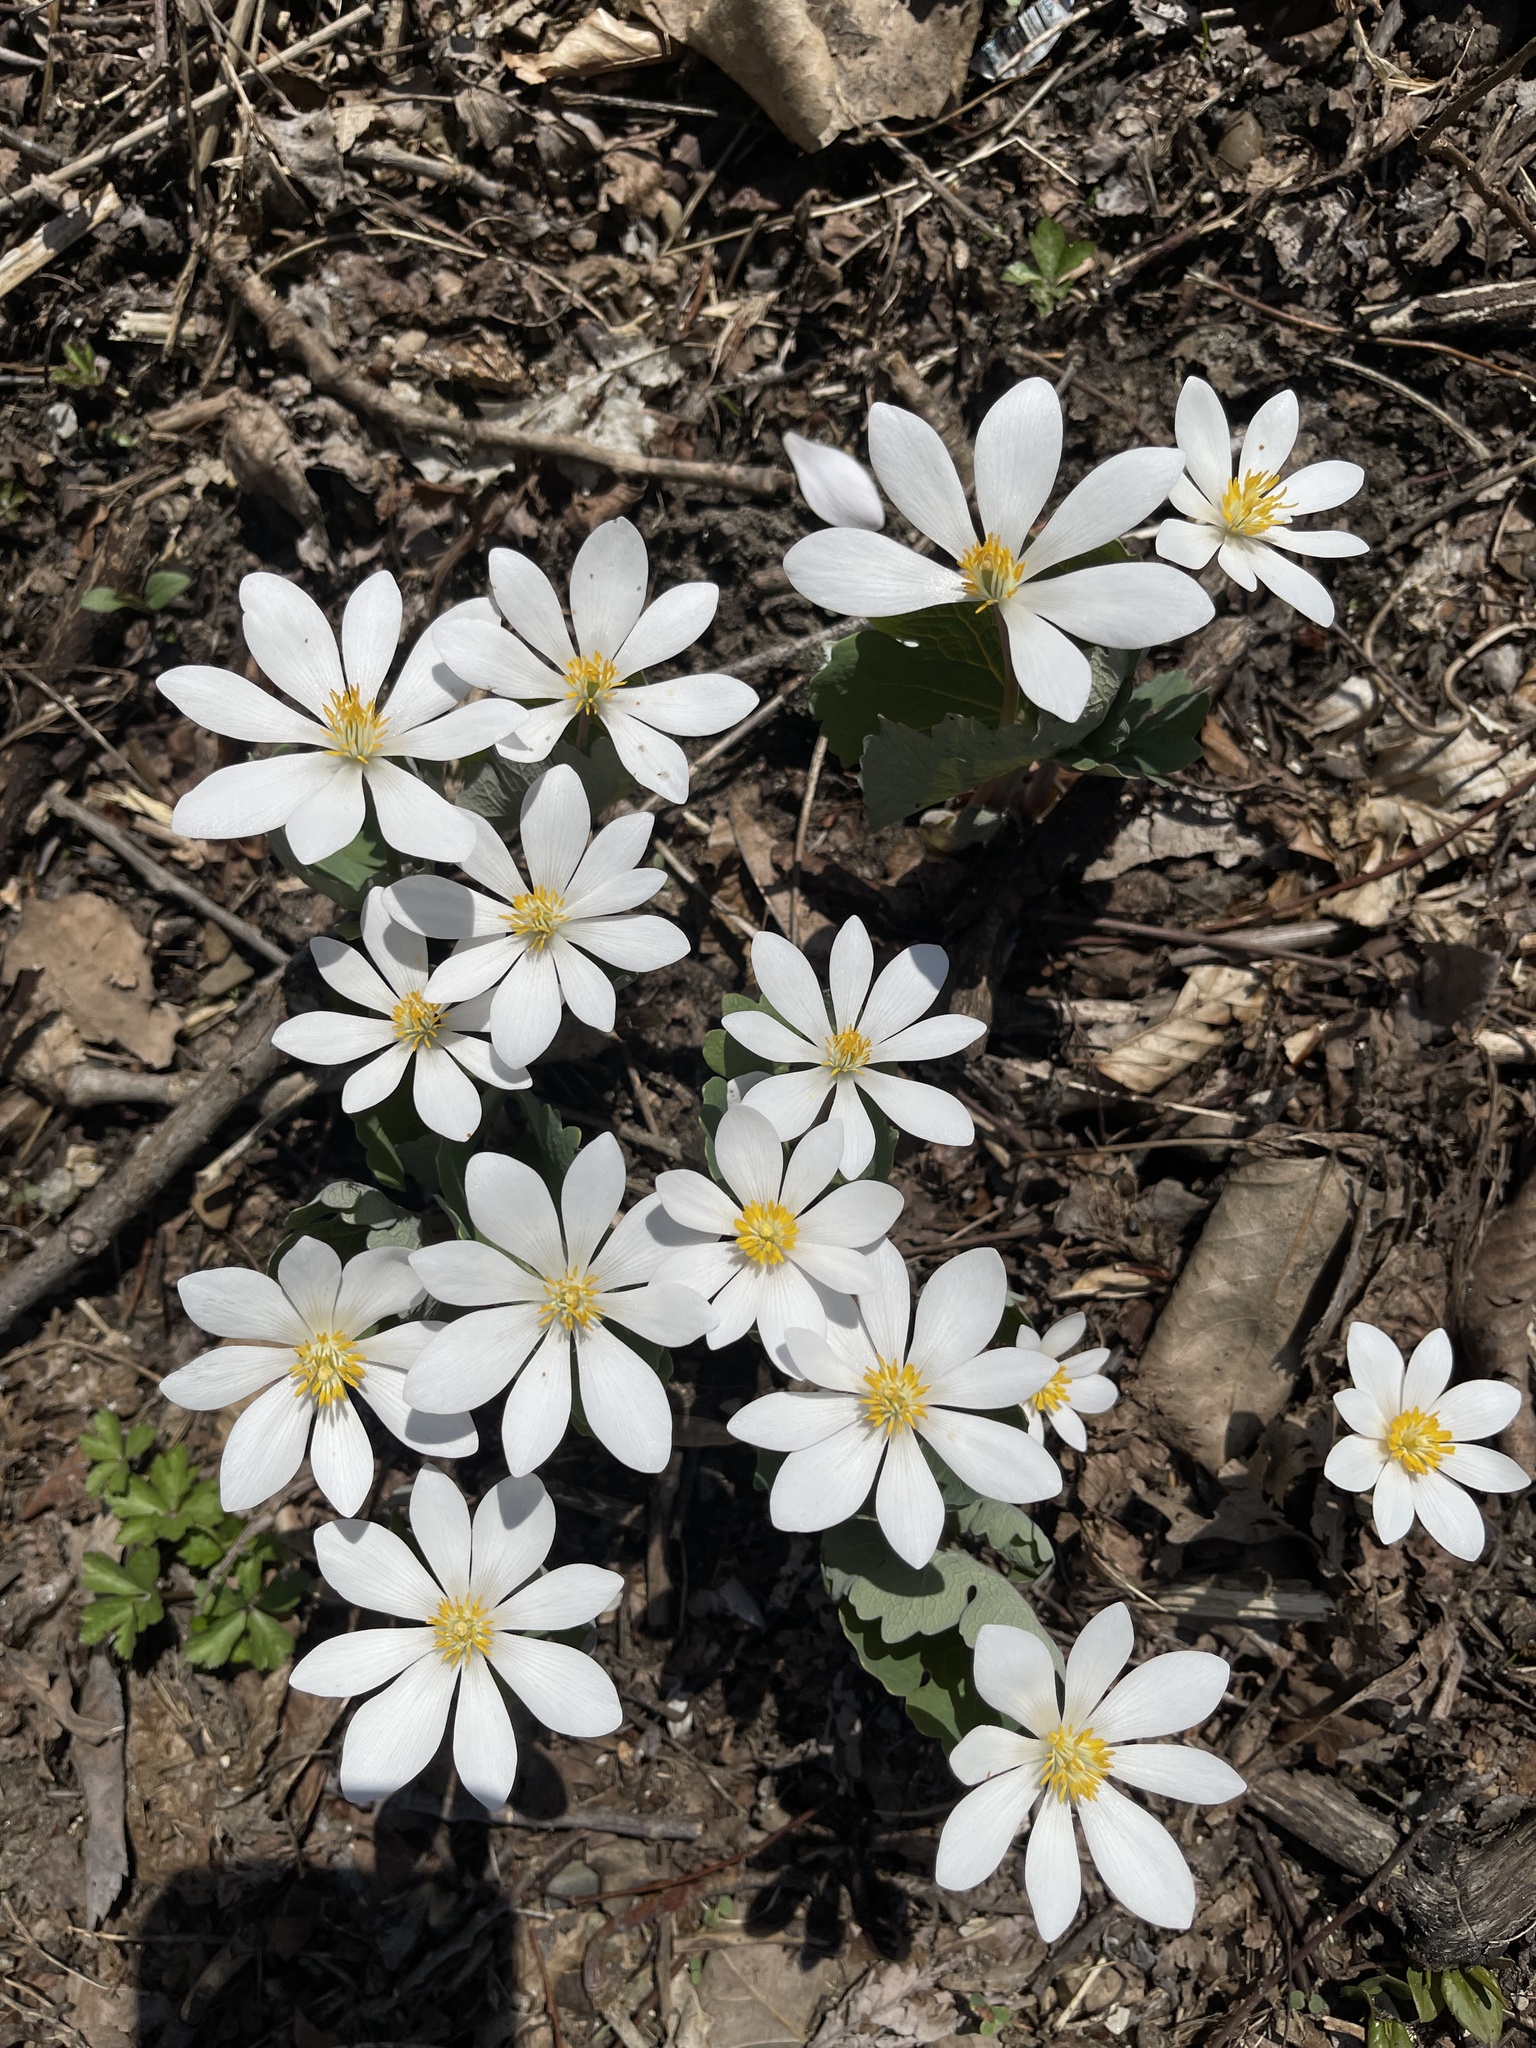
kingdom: Plantae
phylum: Tracheophyta
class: Magnoliopsida
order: Ranunculales
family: Papaveraceae
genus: Sanguinaria
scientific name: Sanguinaria canadensis
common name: Bloodroot
